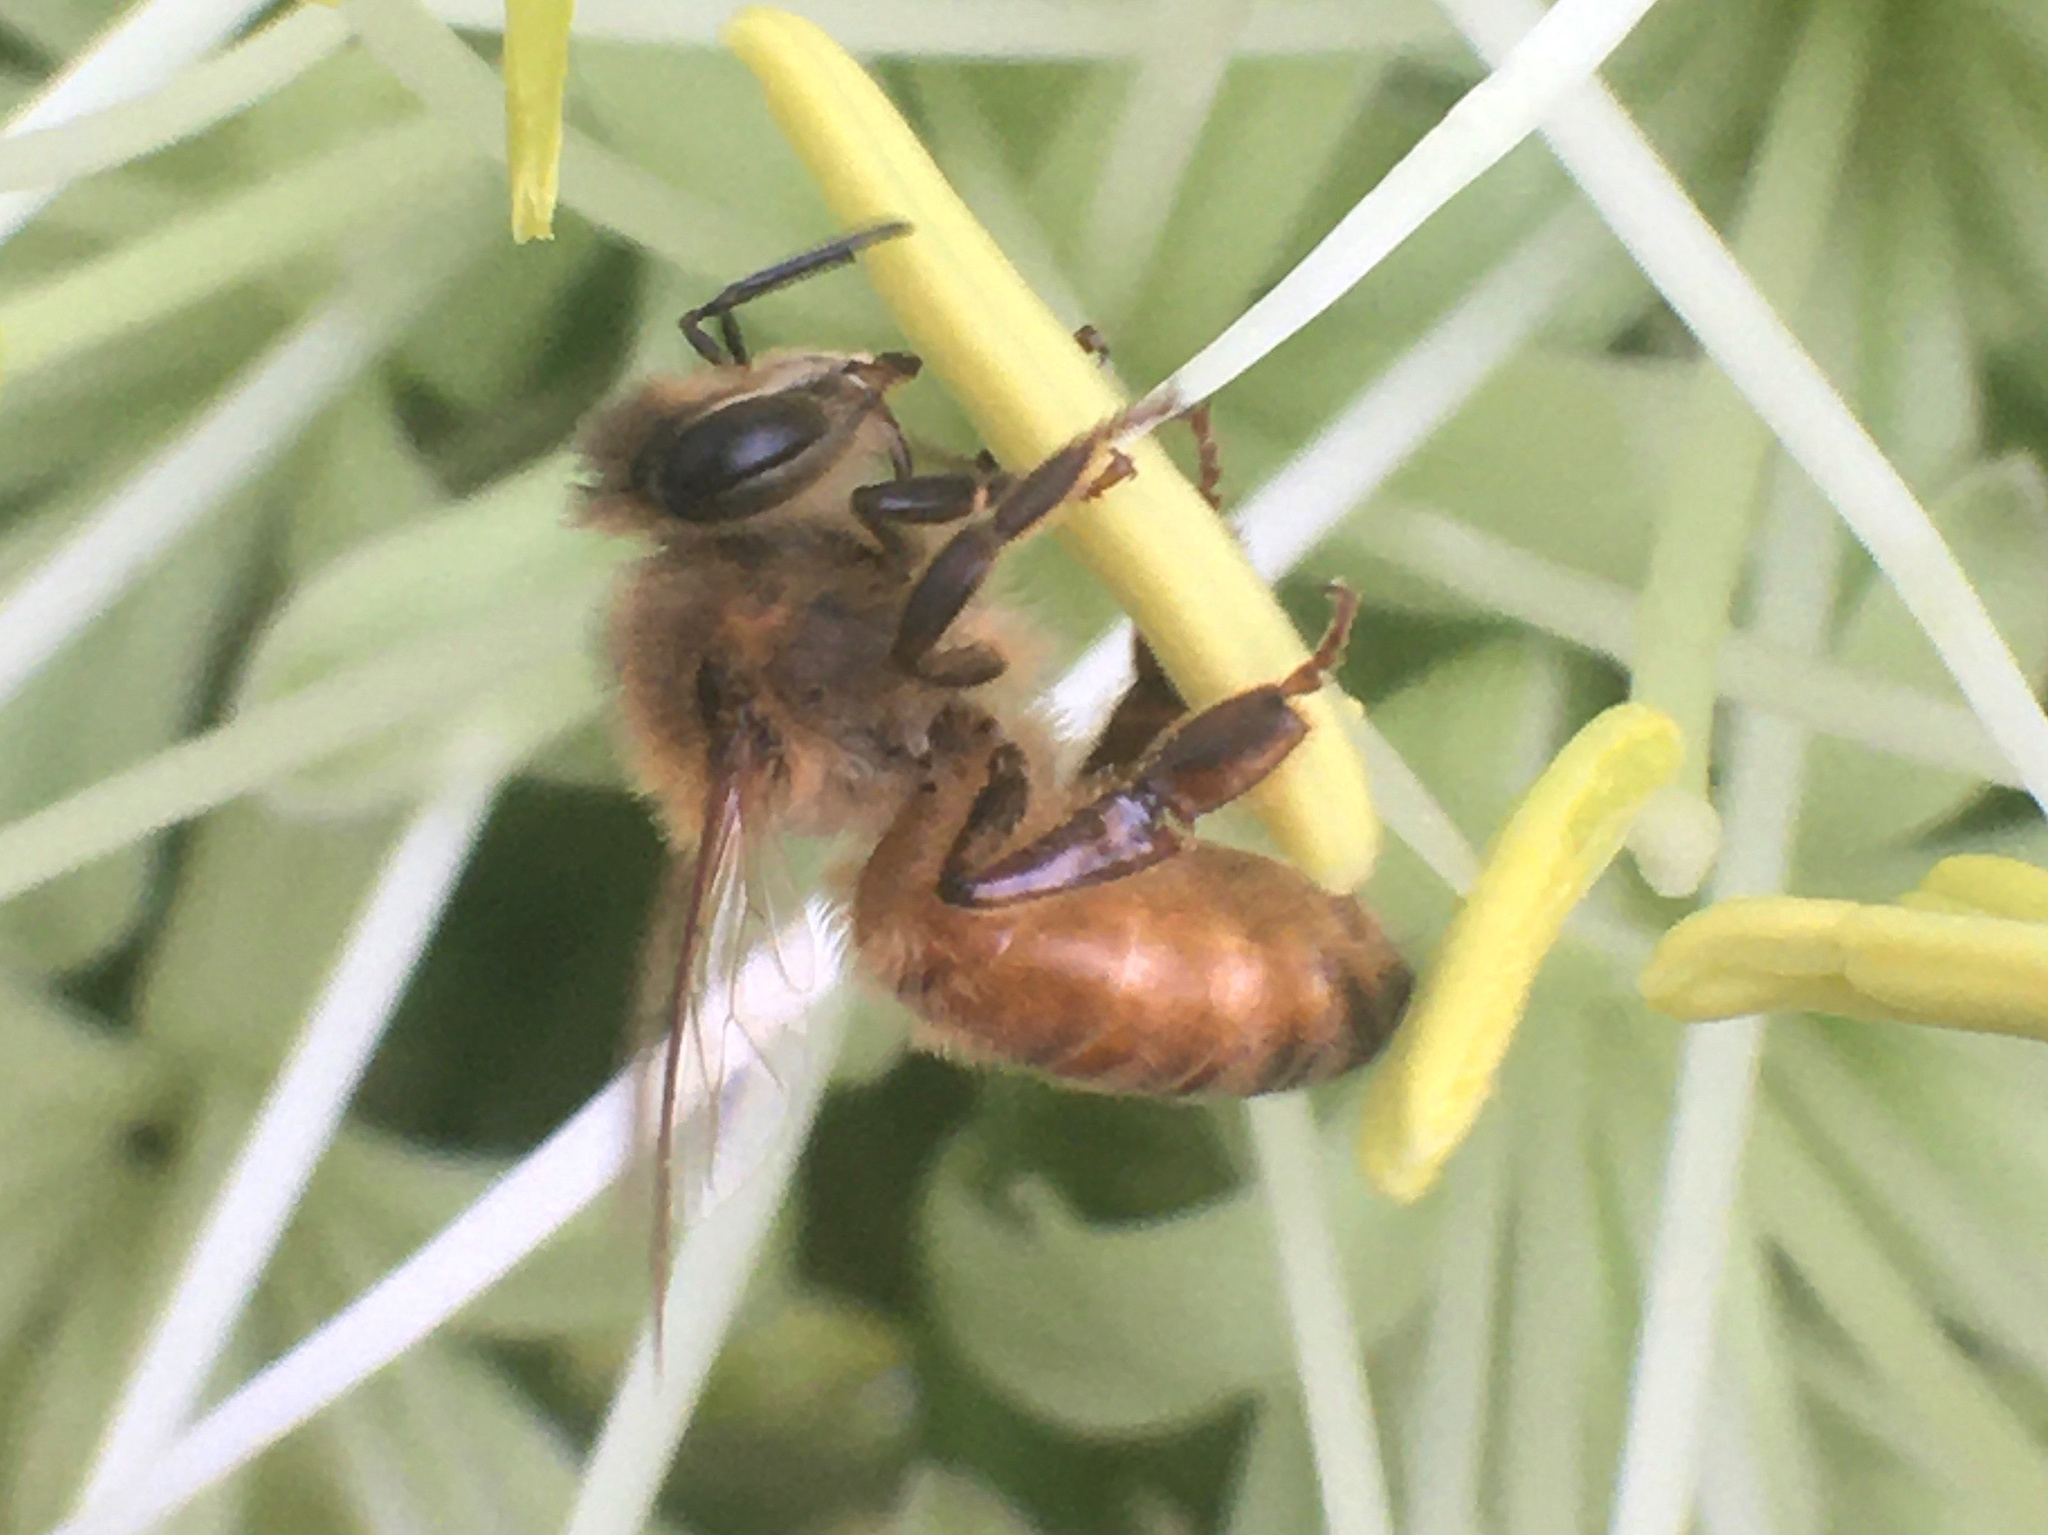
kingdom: Animalia
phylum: Arthropoda
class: Insecta
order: Hymenoptera
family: Apidae
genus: Apis
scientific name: Apis mellifera
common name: Honey bee
